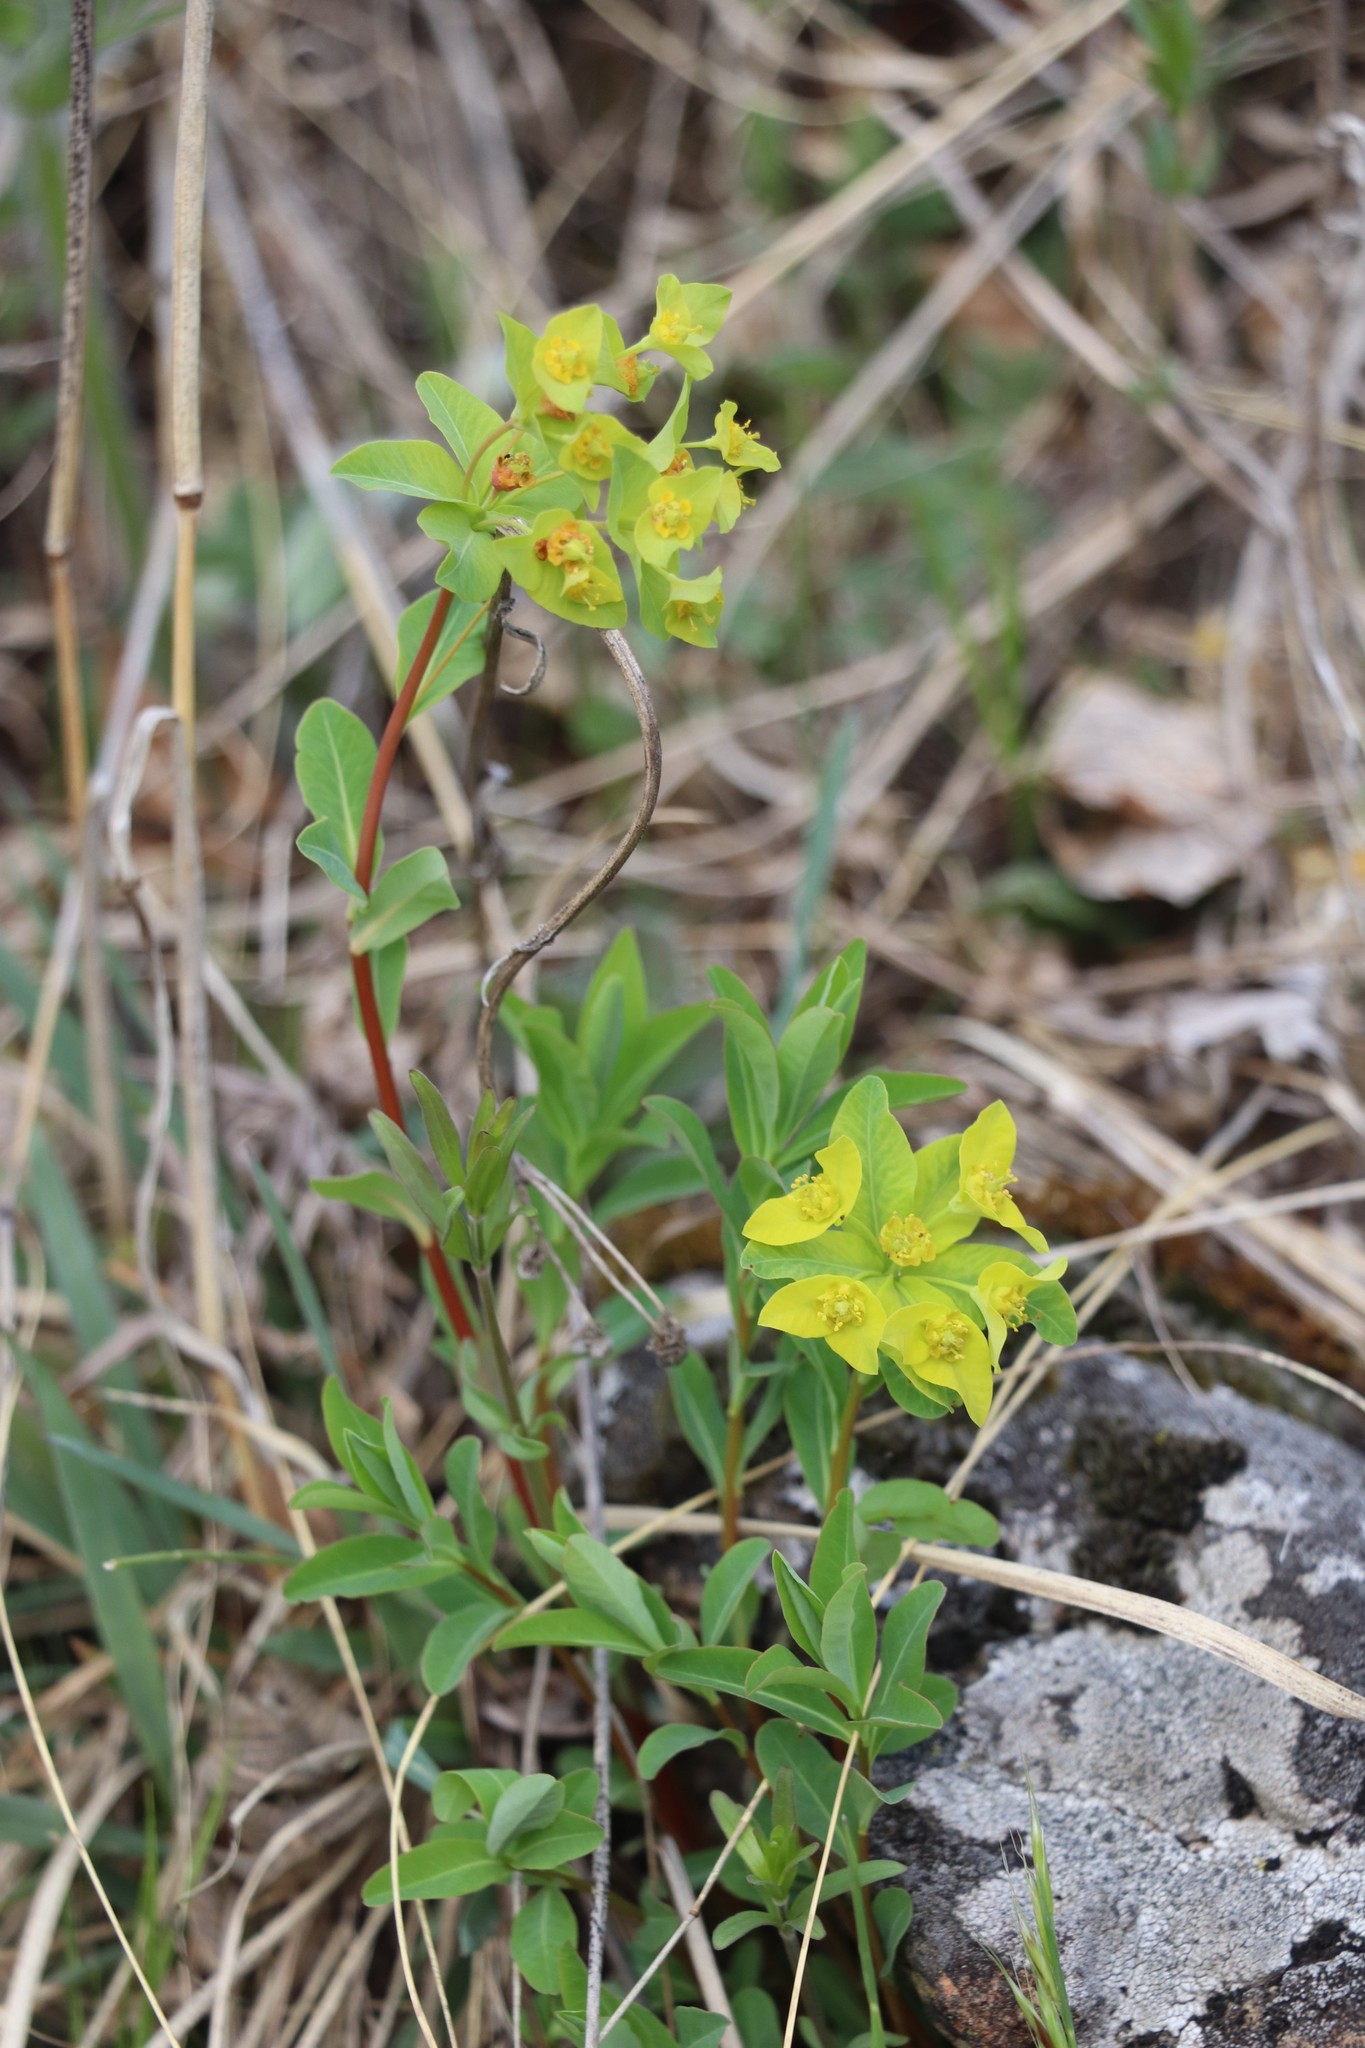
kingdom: Plantae
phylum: Tracheophyta
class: Magnoliopsida
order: Malpighiales
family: Euphorbiaceae
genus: Euphorbia
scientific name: Euphorbia altaica
